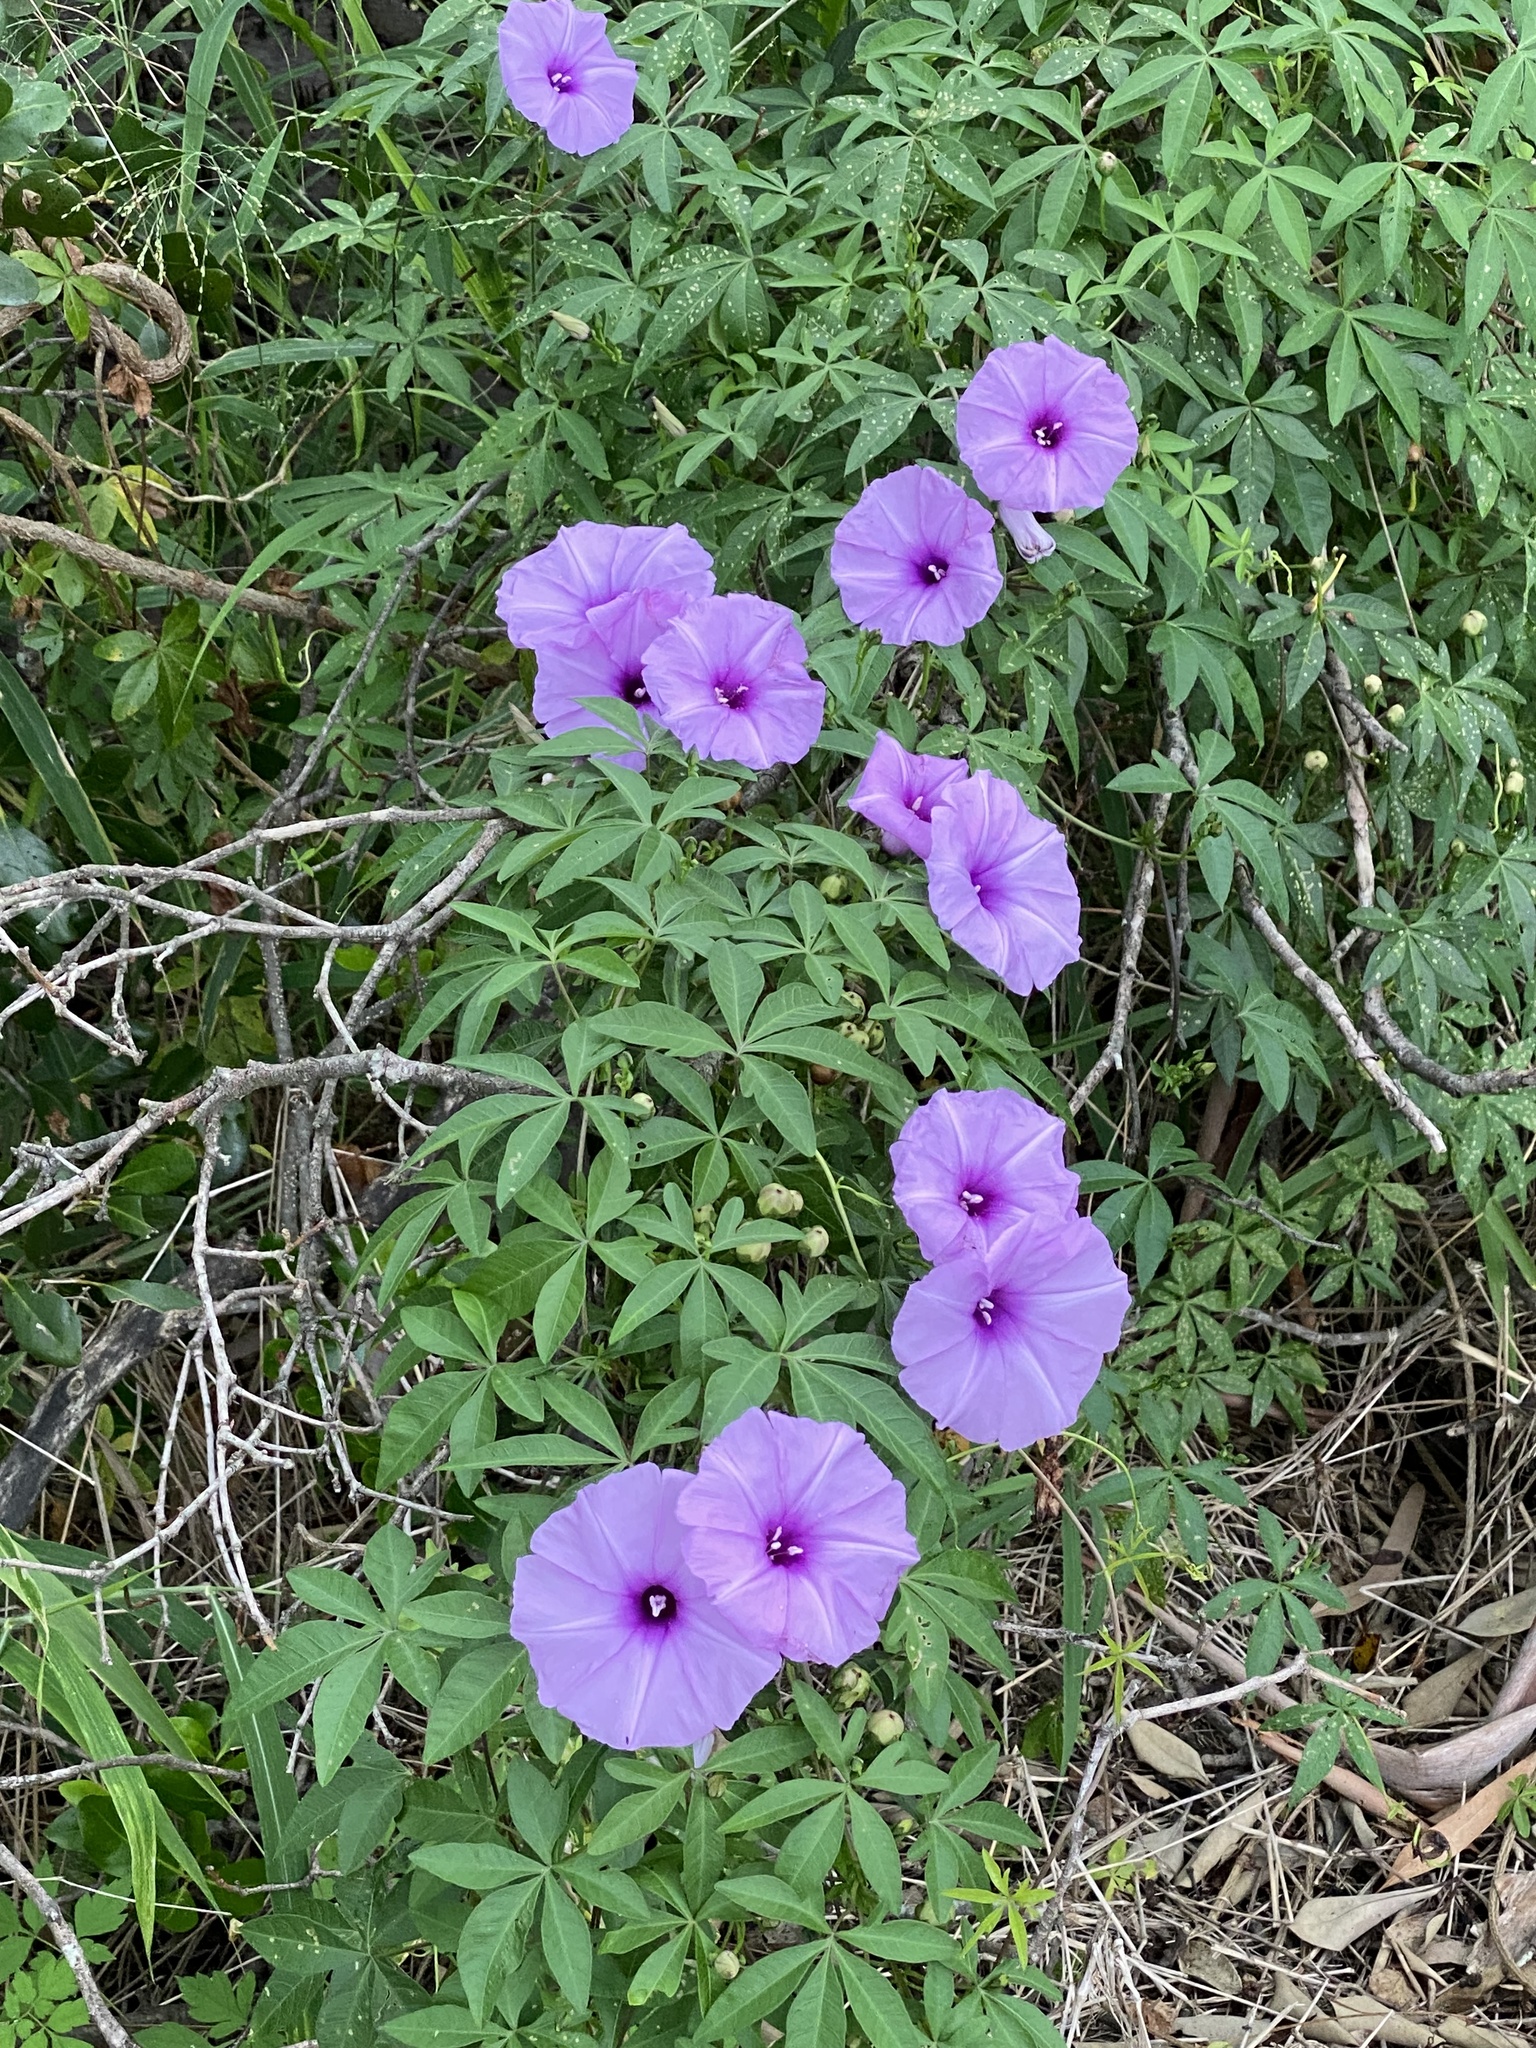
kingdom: Plantae
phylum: Tracheophyta
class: Magnoliopsida
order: Solanales
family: Convolvulaceae
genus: Ipomoea
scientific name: Ipomoea cairica
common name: Mile a minute vine
